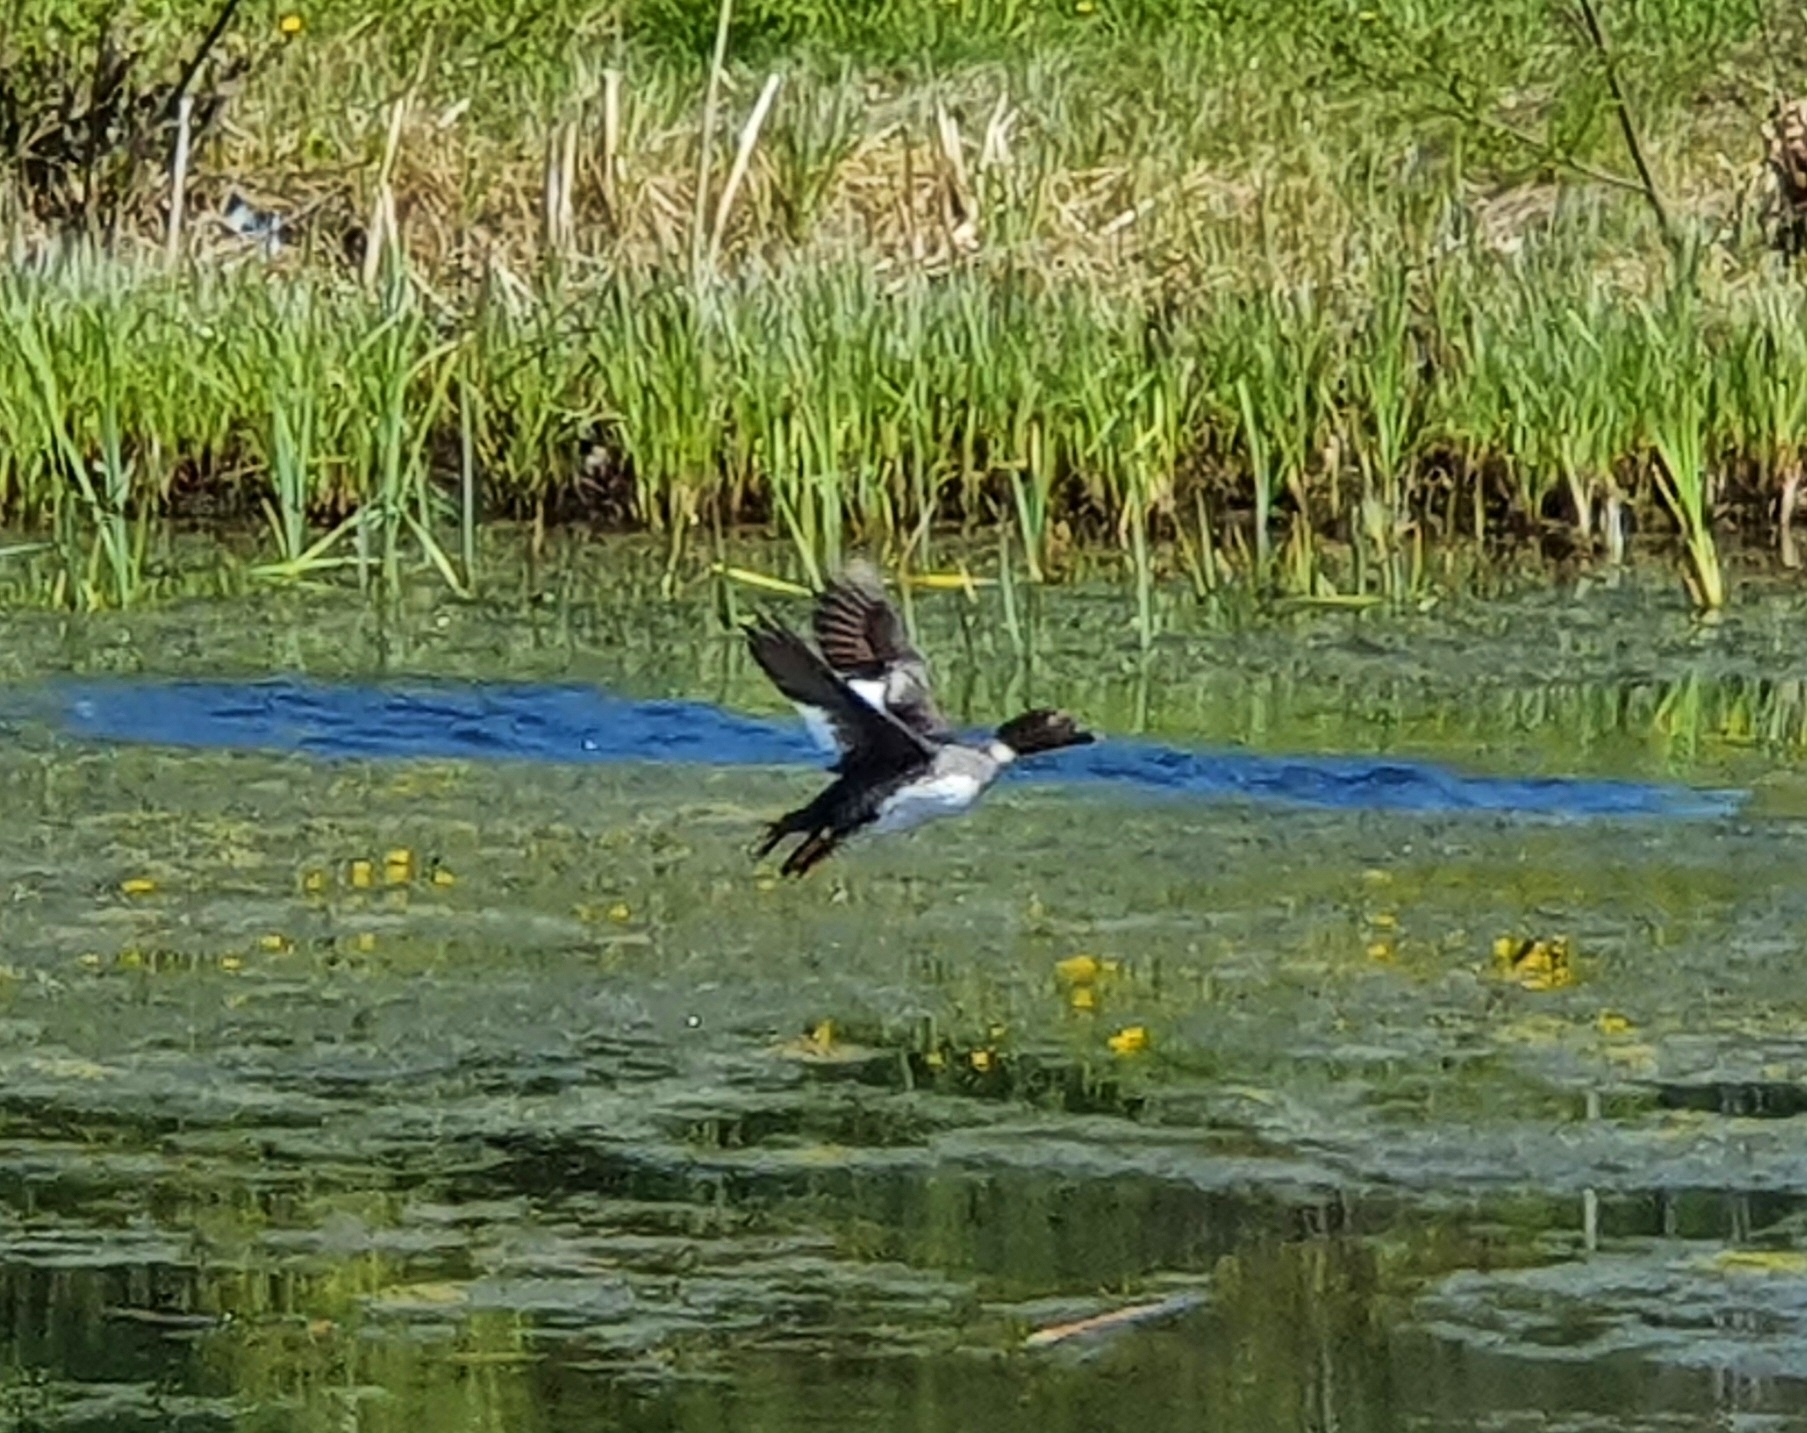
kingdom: Animalia
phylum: Chordata
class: Aves
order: Anseriformes
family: Anatidae
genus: Bucephala
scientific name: Bucephala clangula
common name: Common goldeneye
